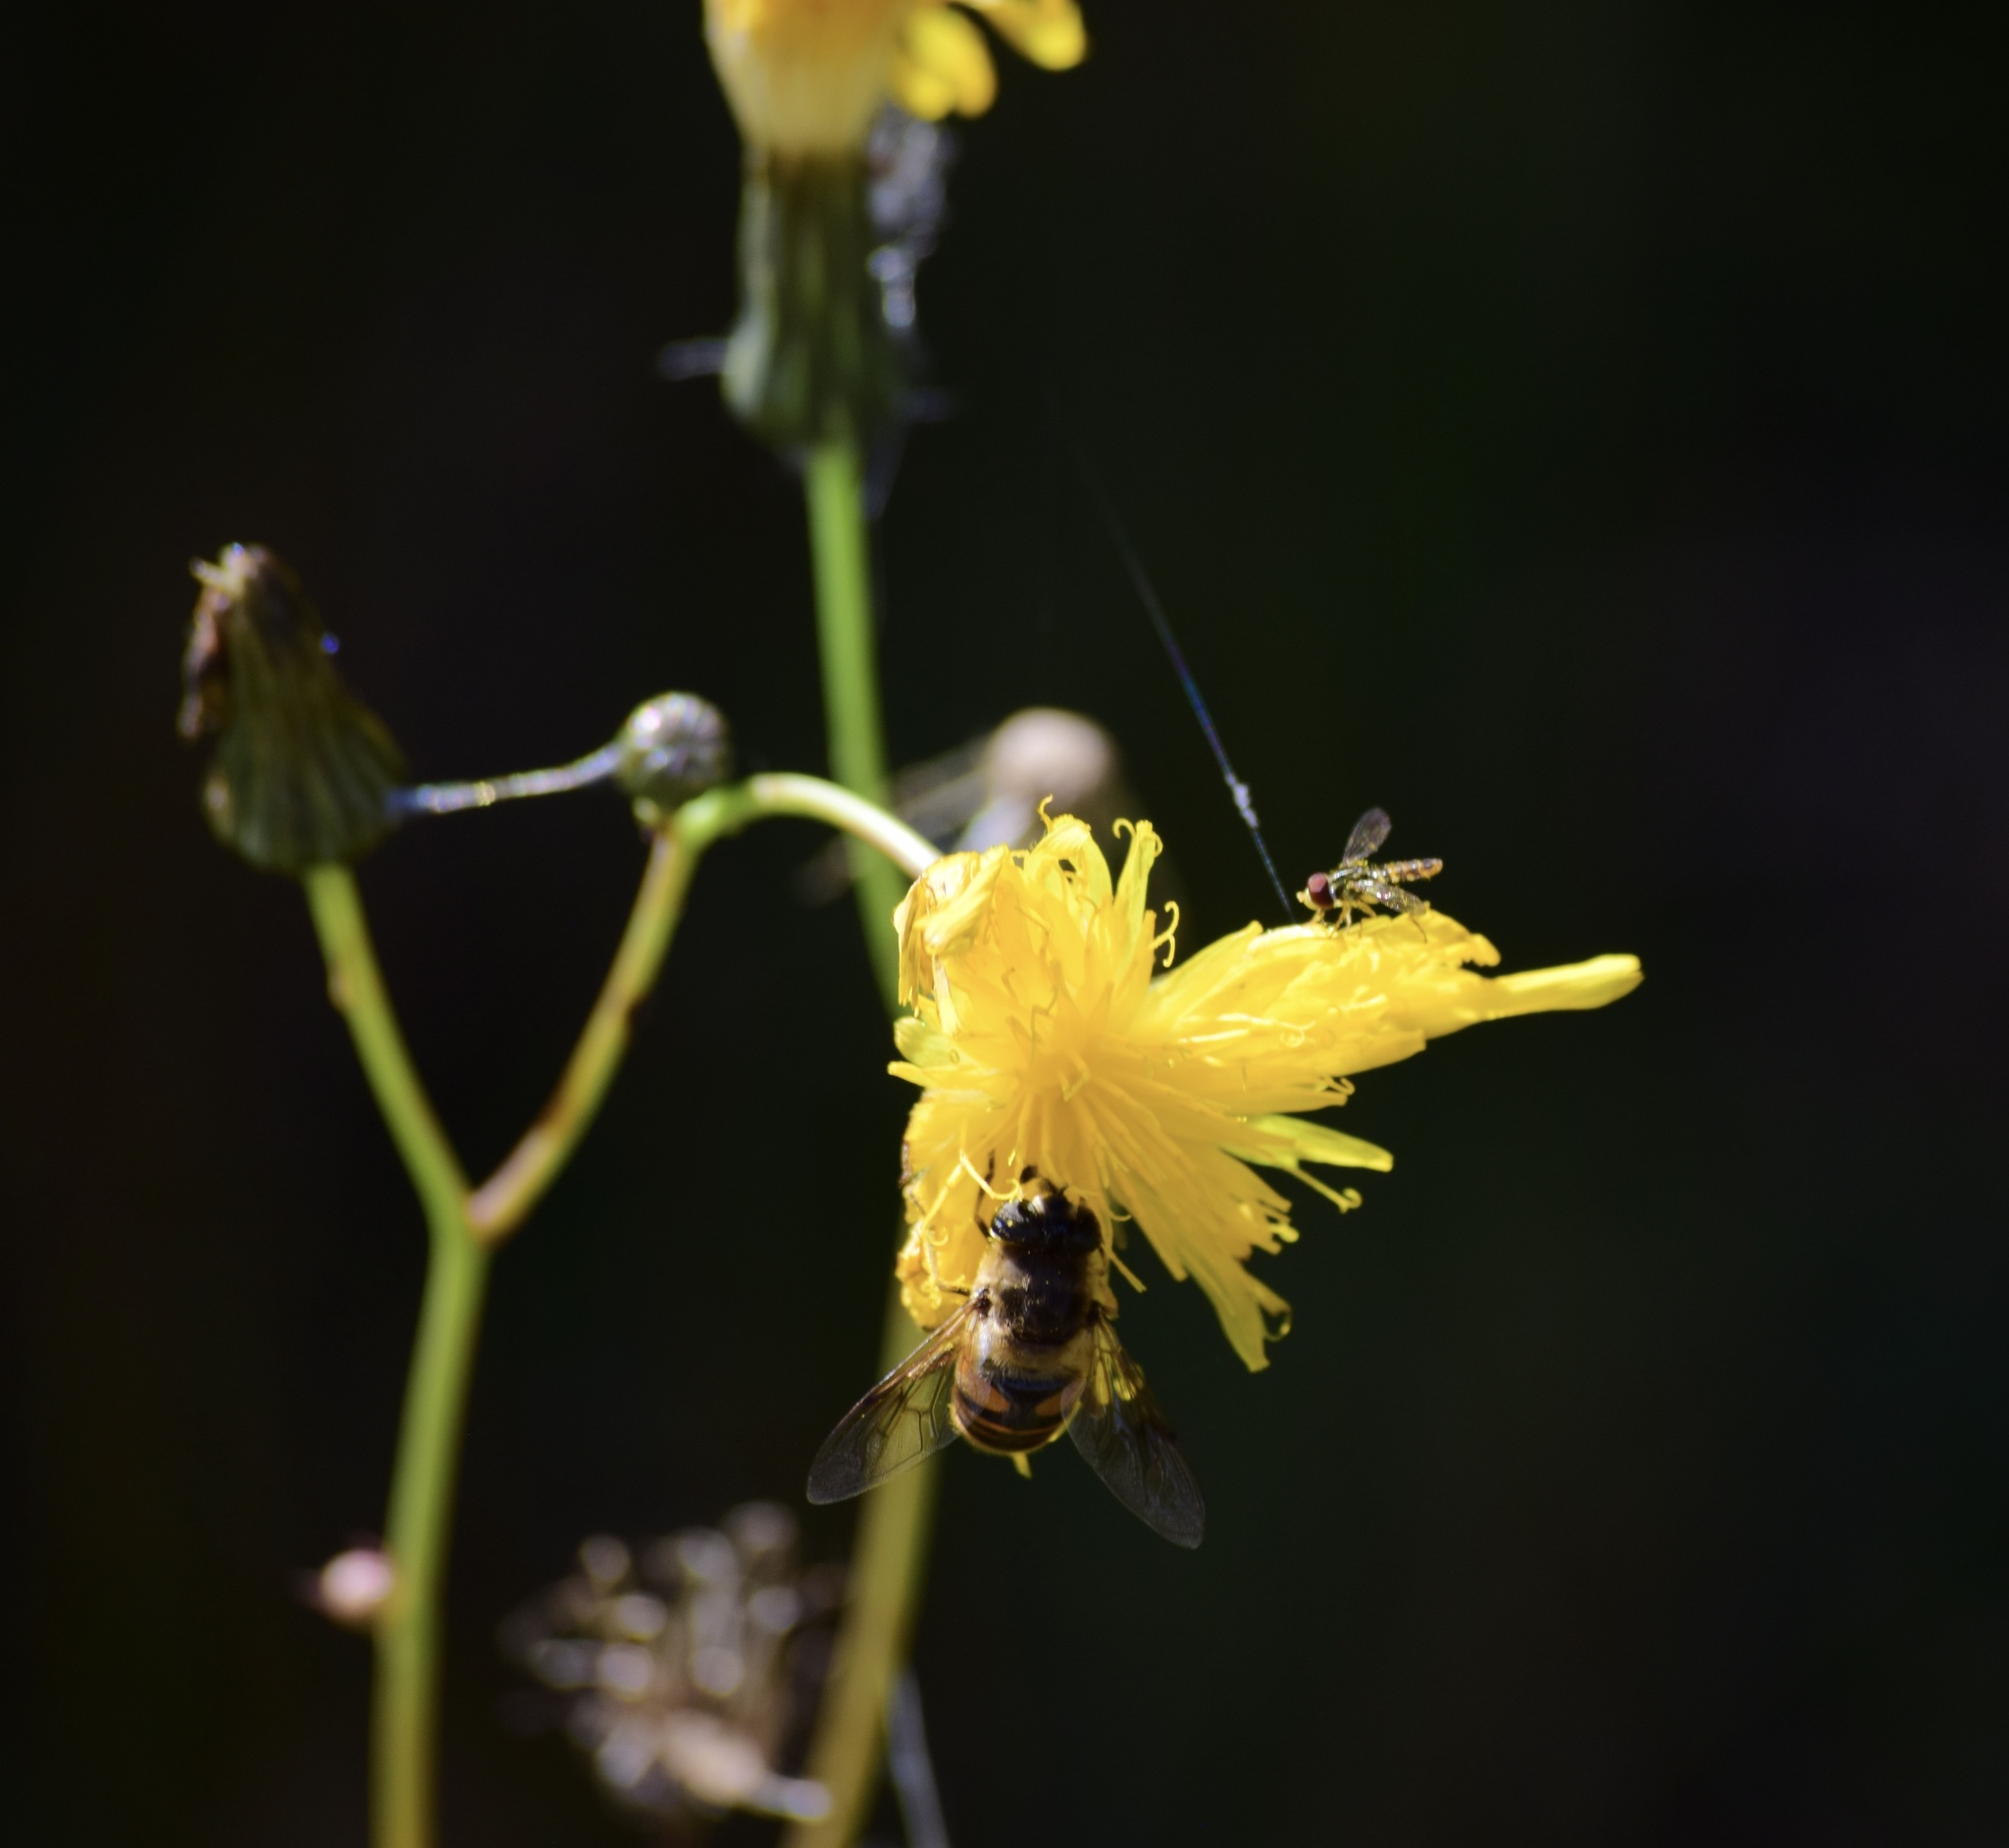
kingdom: Animalia
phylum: Arthropoda
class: Insecta
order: Diptera
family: Syrphidae
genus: Eristalis
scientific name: Eristalis tenax
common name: Drone fly
